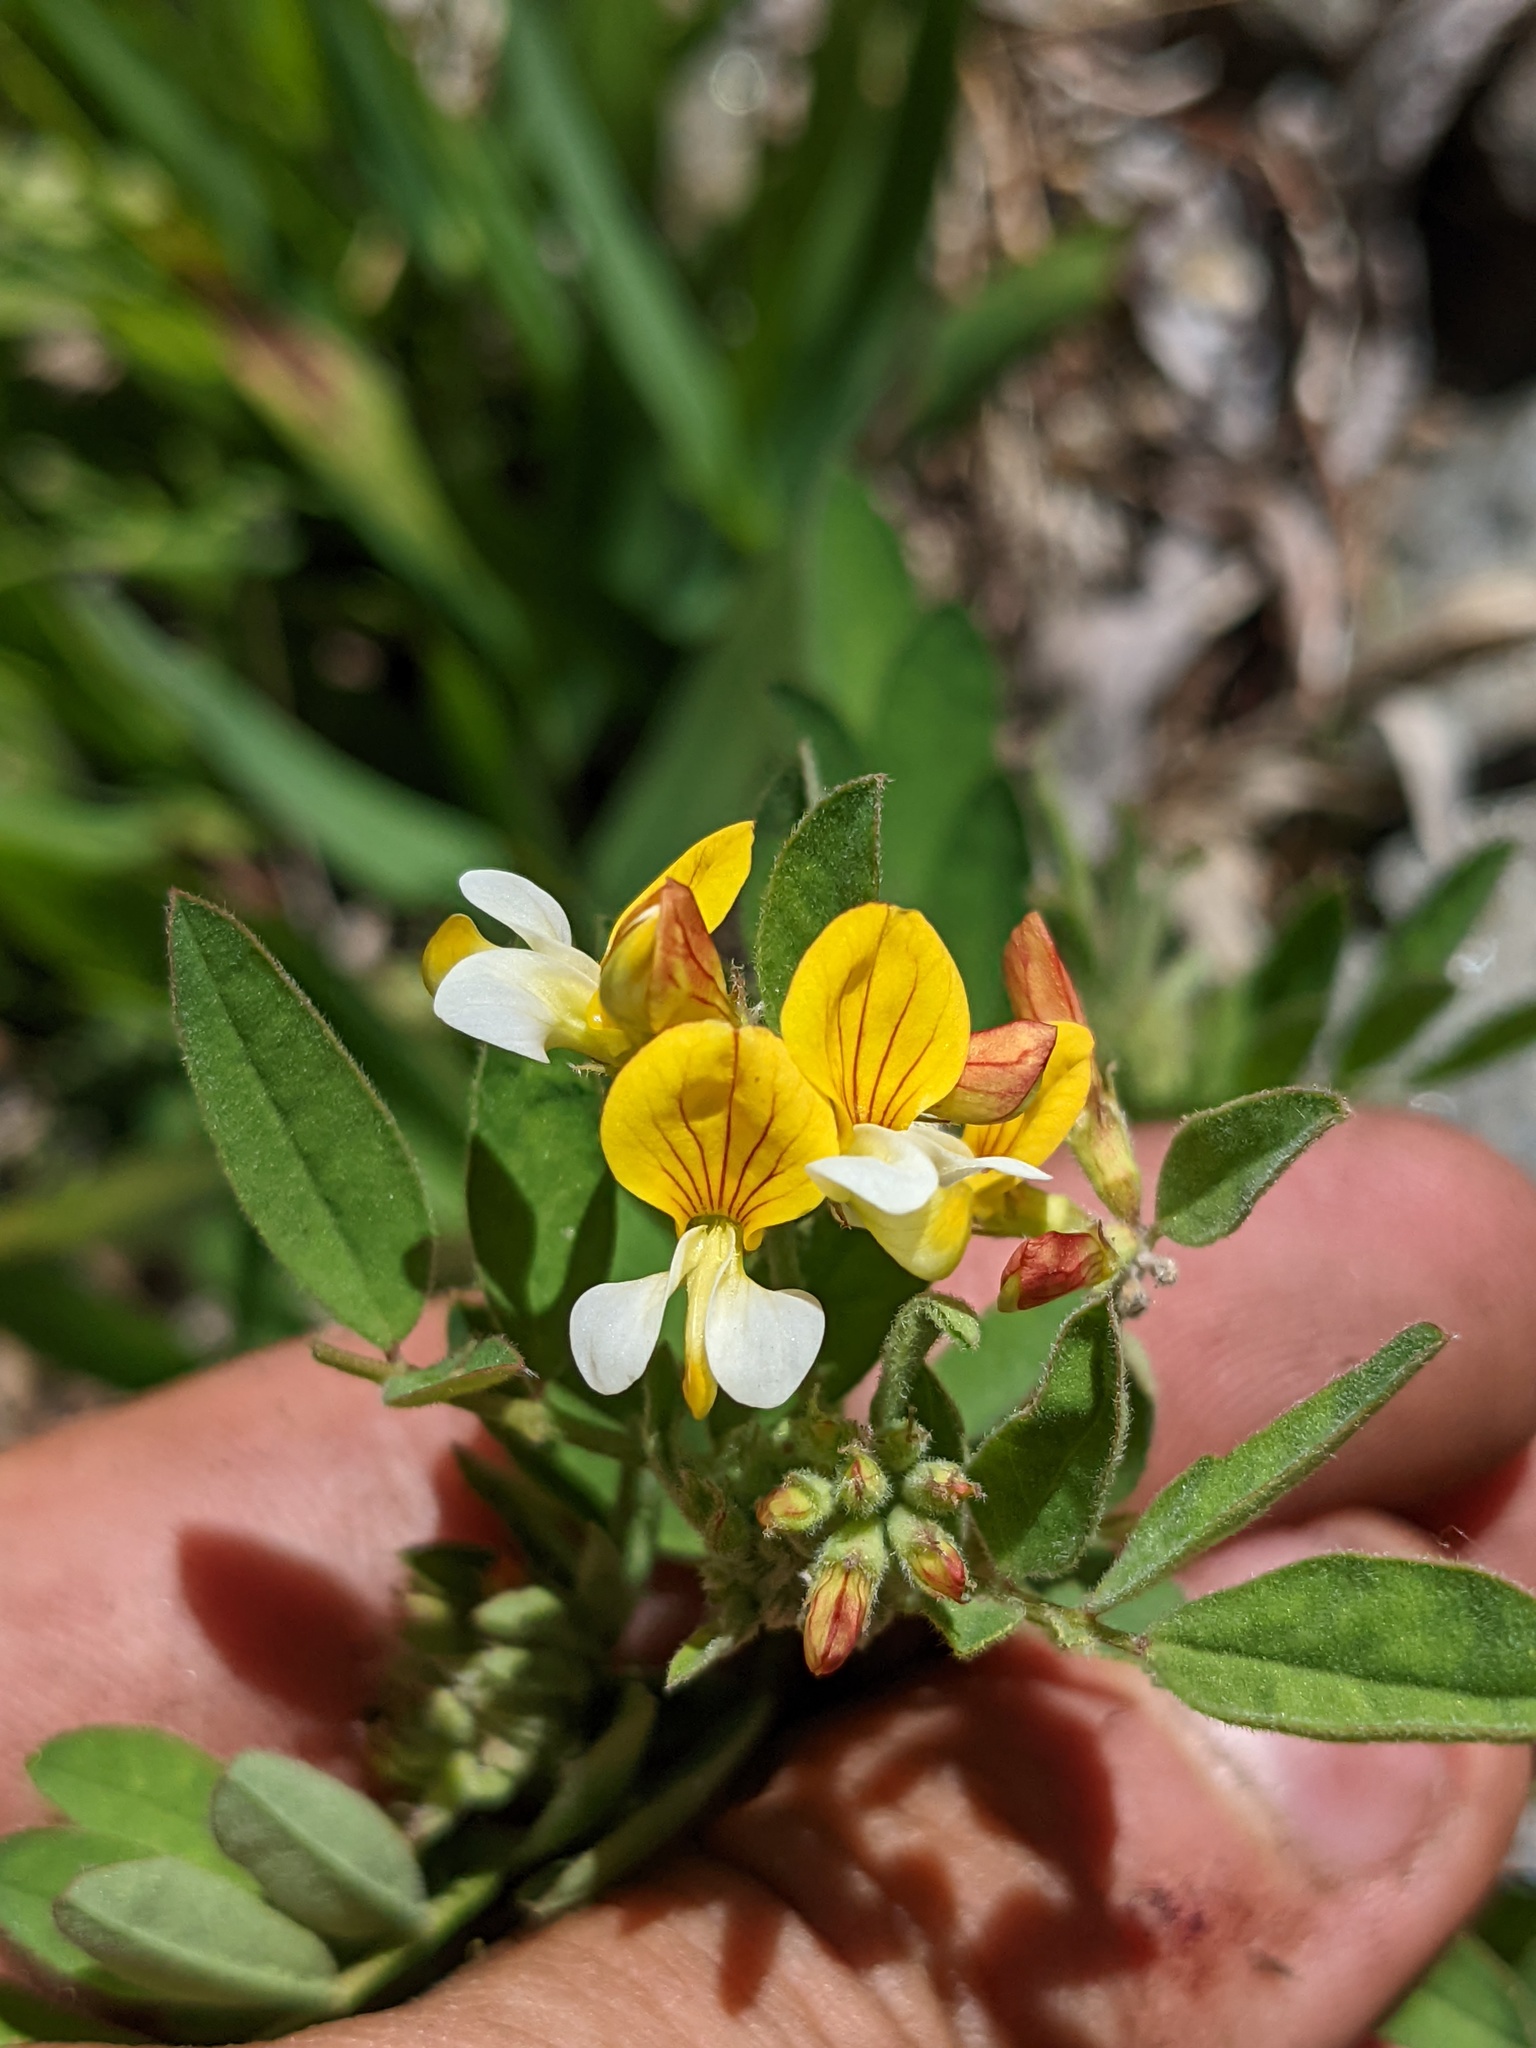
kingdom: Plantae
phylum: Tracheophyta
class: Magnoliopsida
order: Fabales
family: Fabaceae
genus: Hosackia
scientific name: Hosackia oblongifolia
